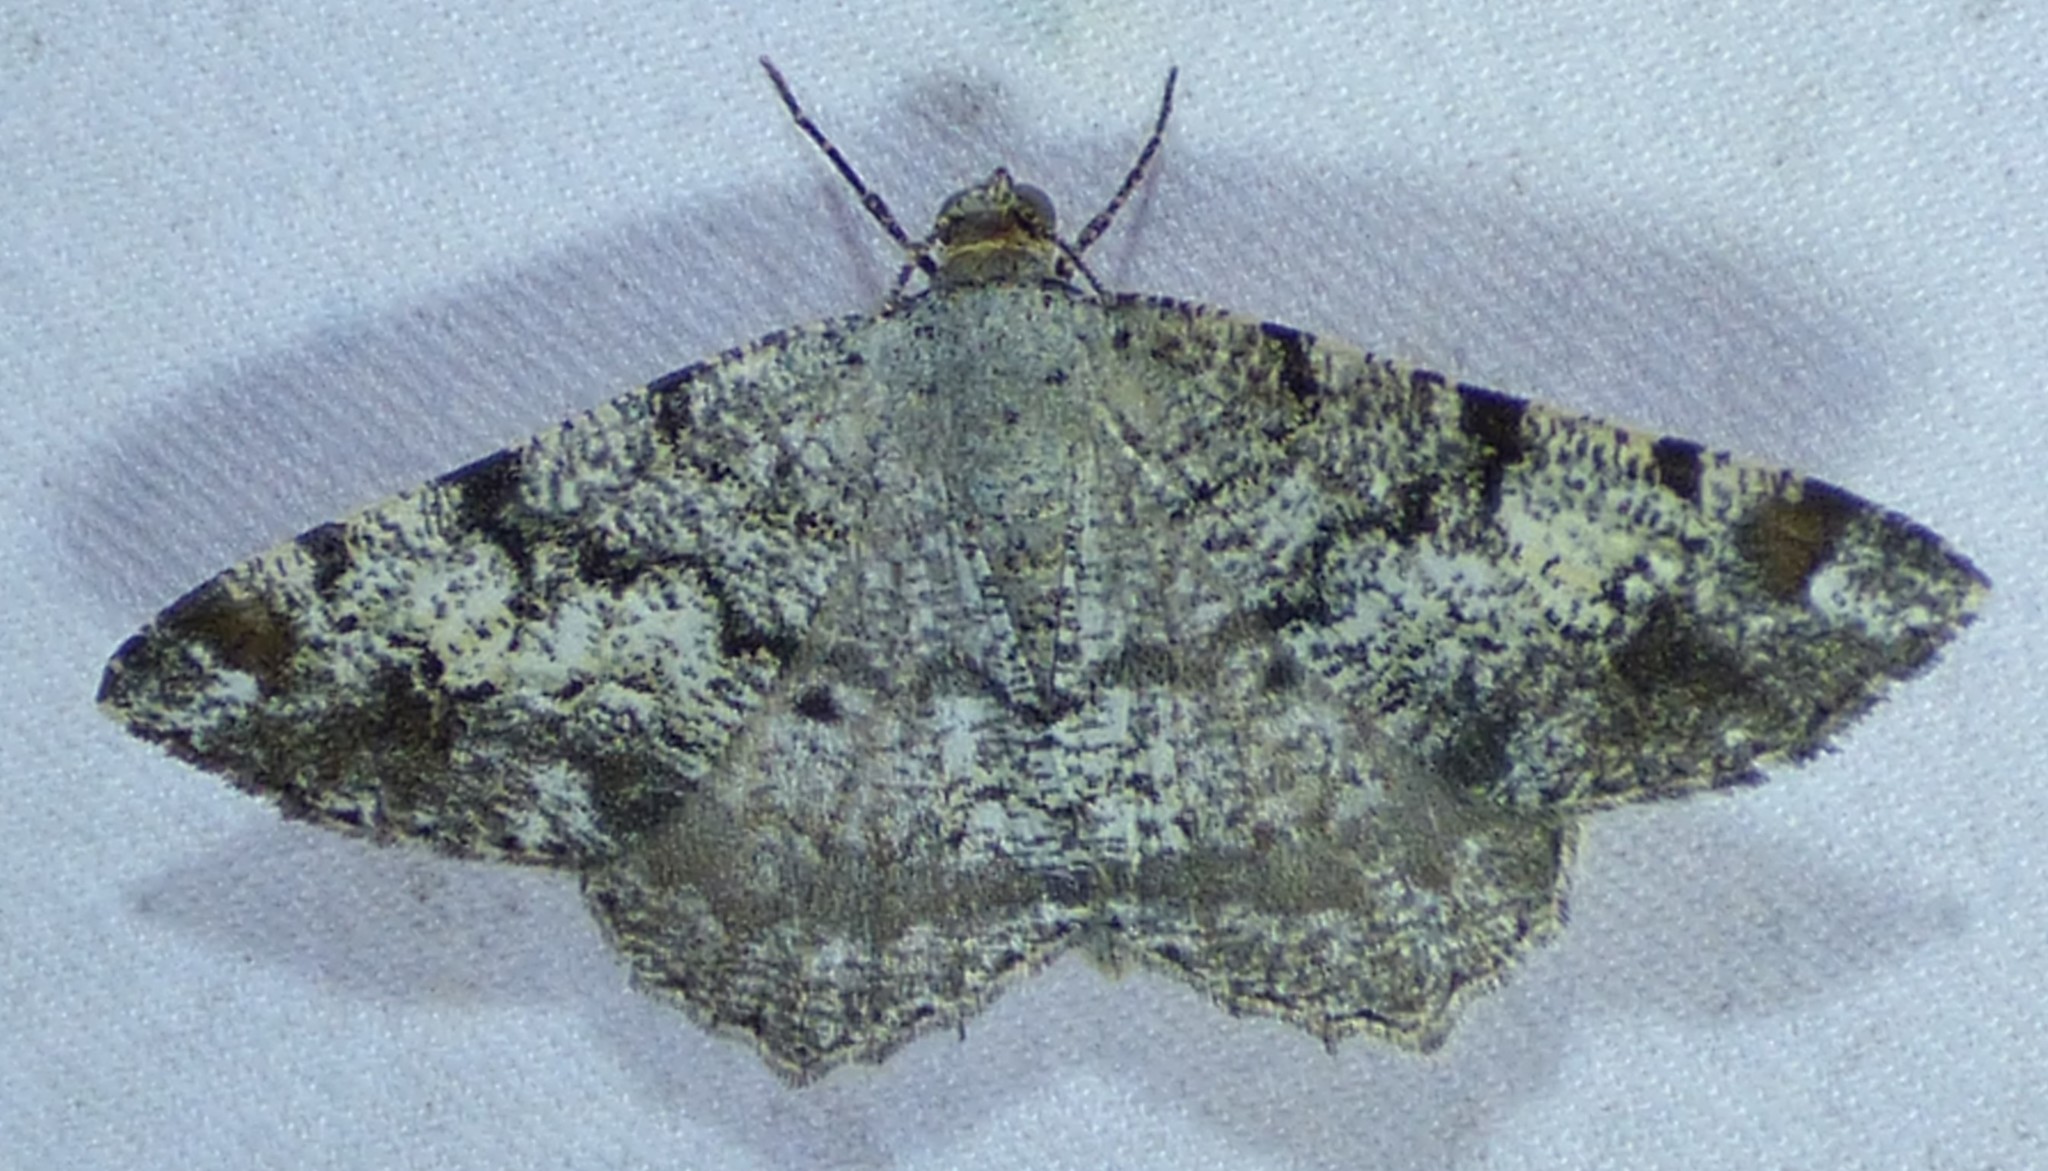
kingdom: Animalia
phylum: Arthropoda
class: Insecta
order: Lepidoptera
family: Geometridae
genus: Macaria
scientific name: Macaria granitata
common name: Granite moth
